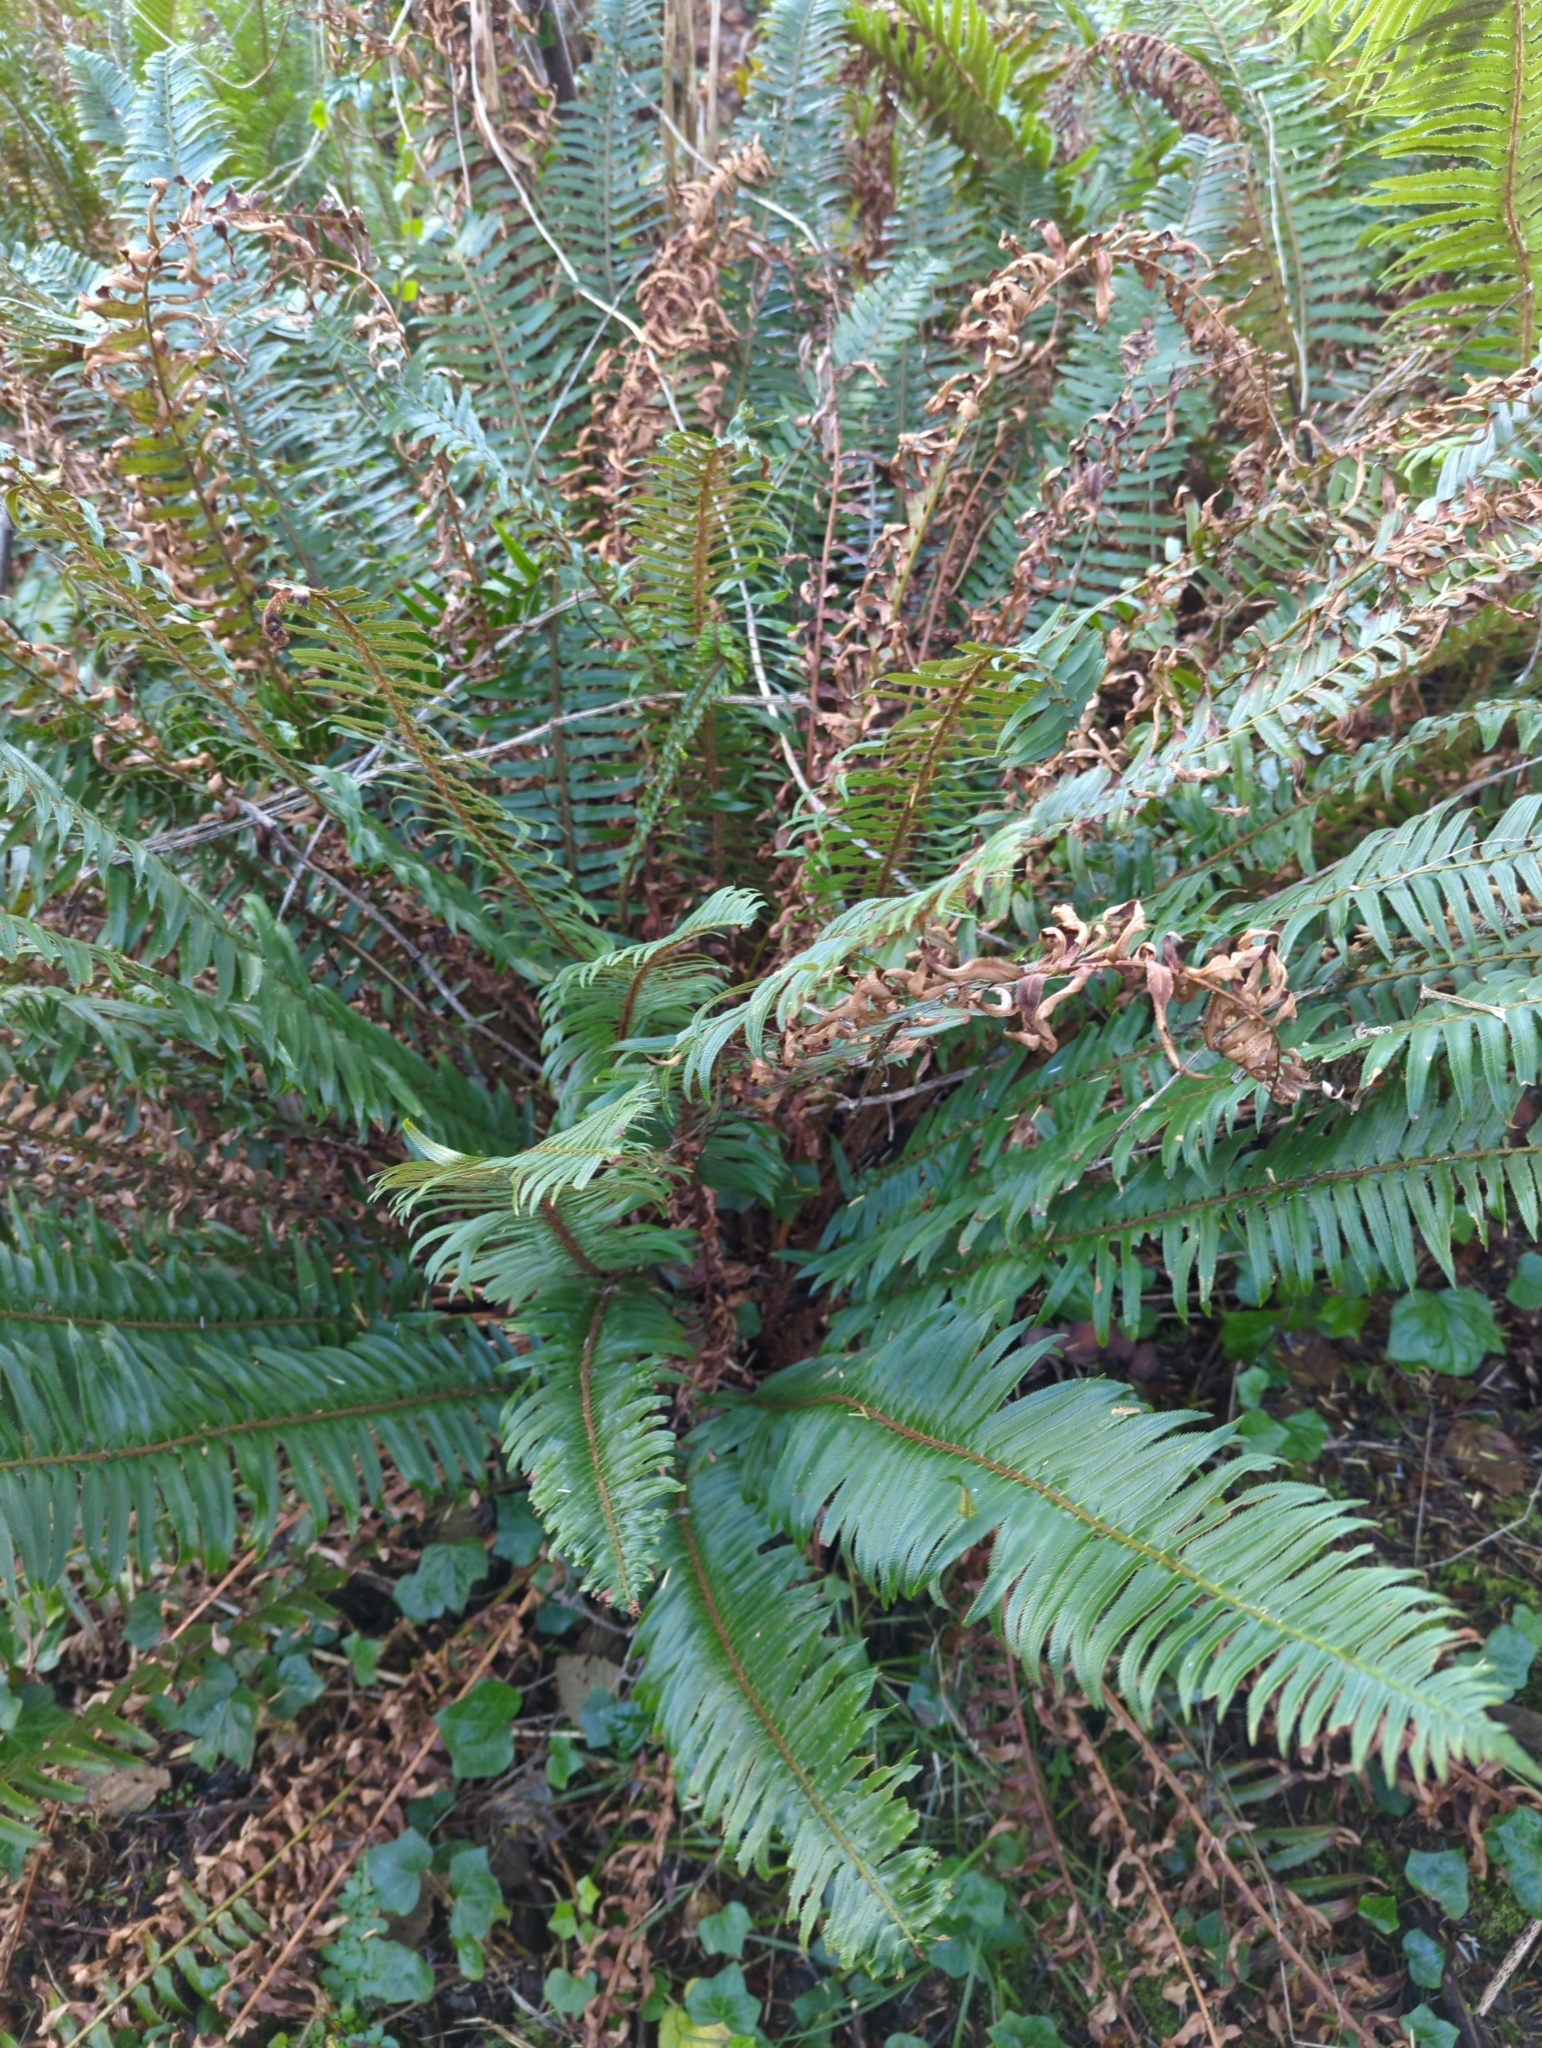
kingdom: Plantae
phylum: Tracheophyta
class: Polypodiopsida
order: Polypodiales
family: Dryopteridaceae
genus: Polystichum
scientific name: Polystichum munitum
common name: Western sword-fern
